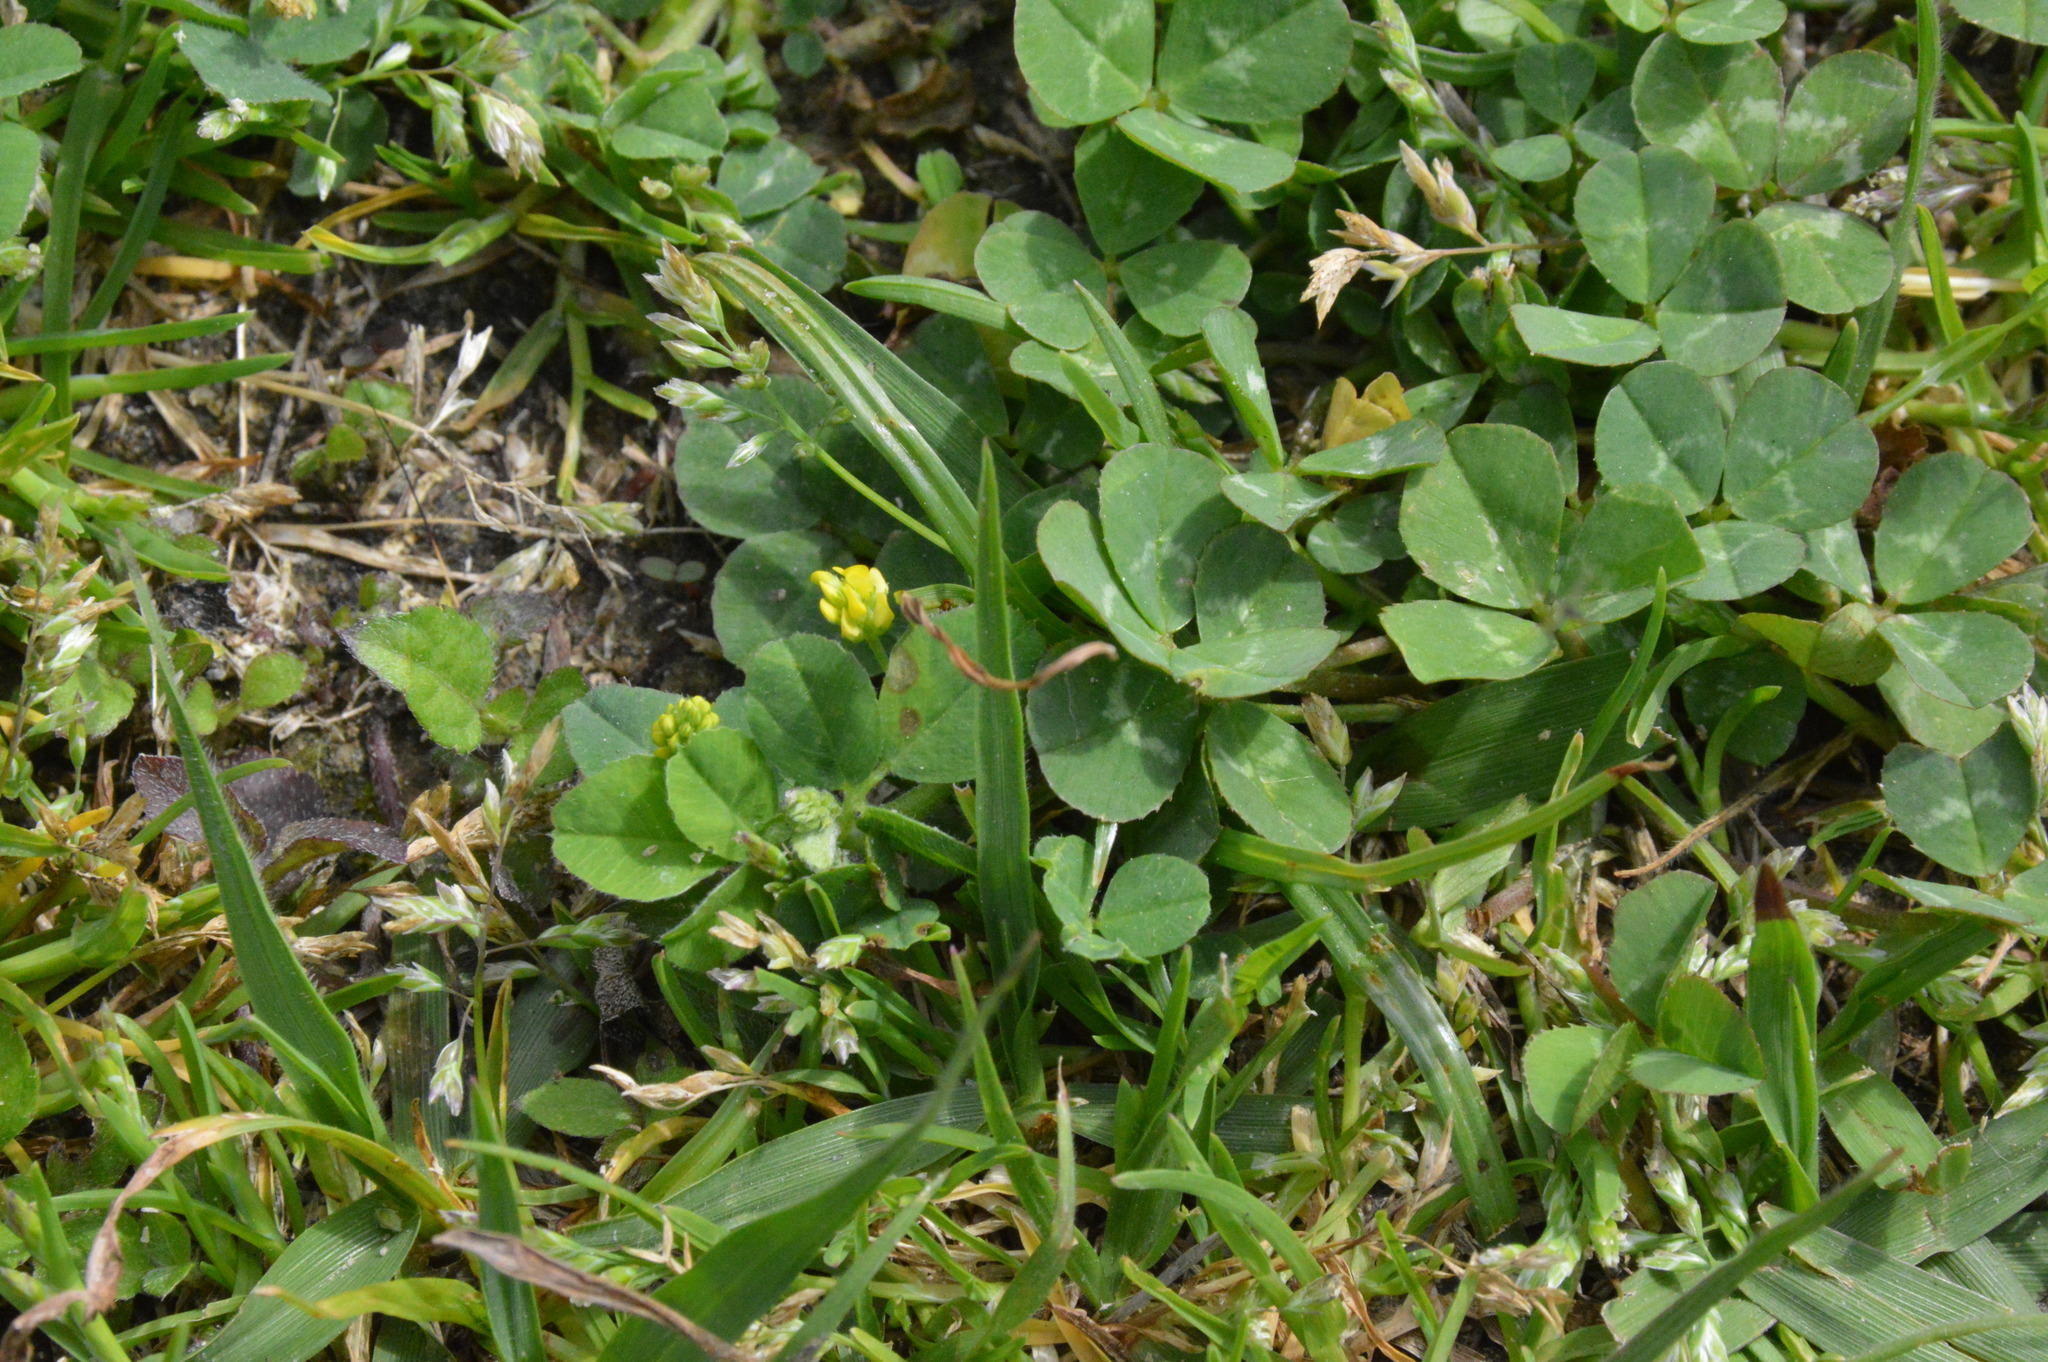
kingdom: Plantae
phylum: Tracheophyta
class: Magnoliopsida
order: Fabales
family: Fabaceae
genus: Medicago
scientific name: Medicago lupulina
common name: Black medick
